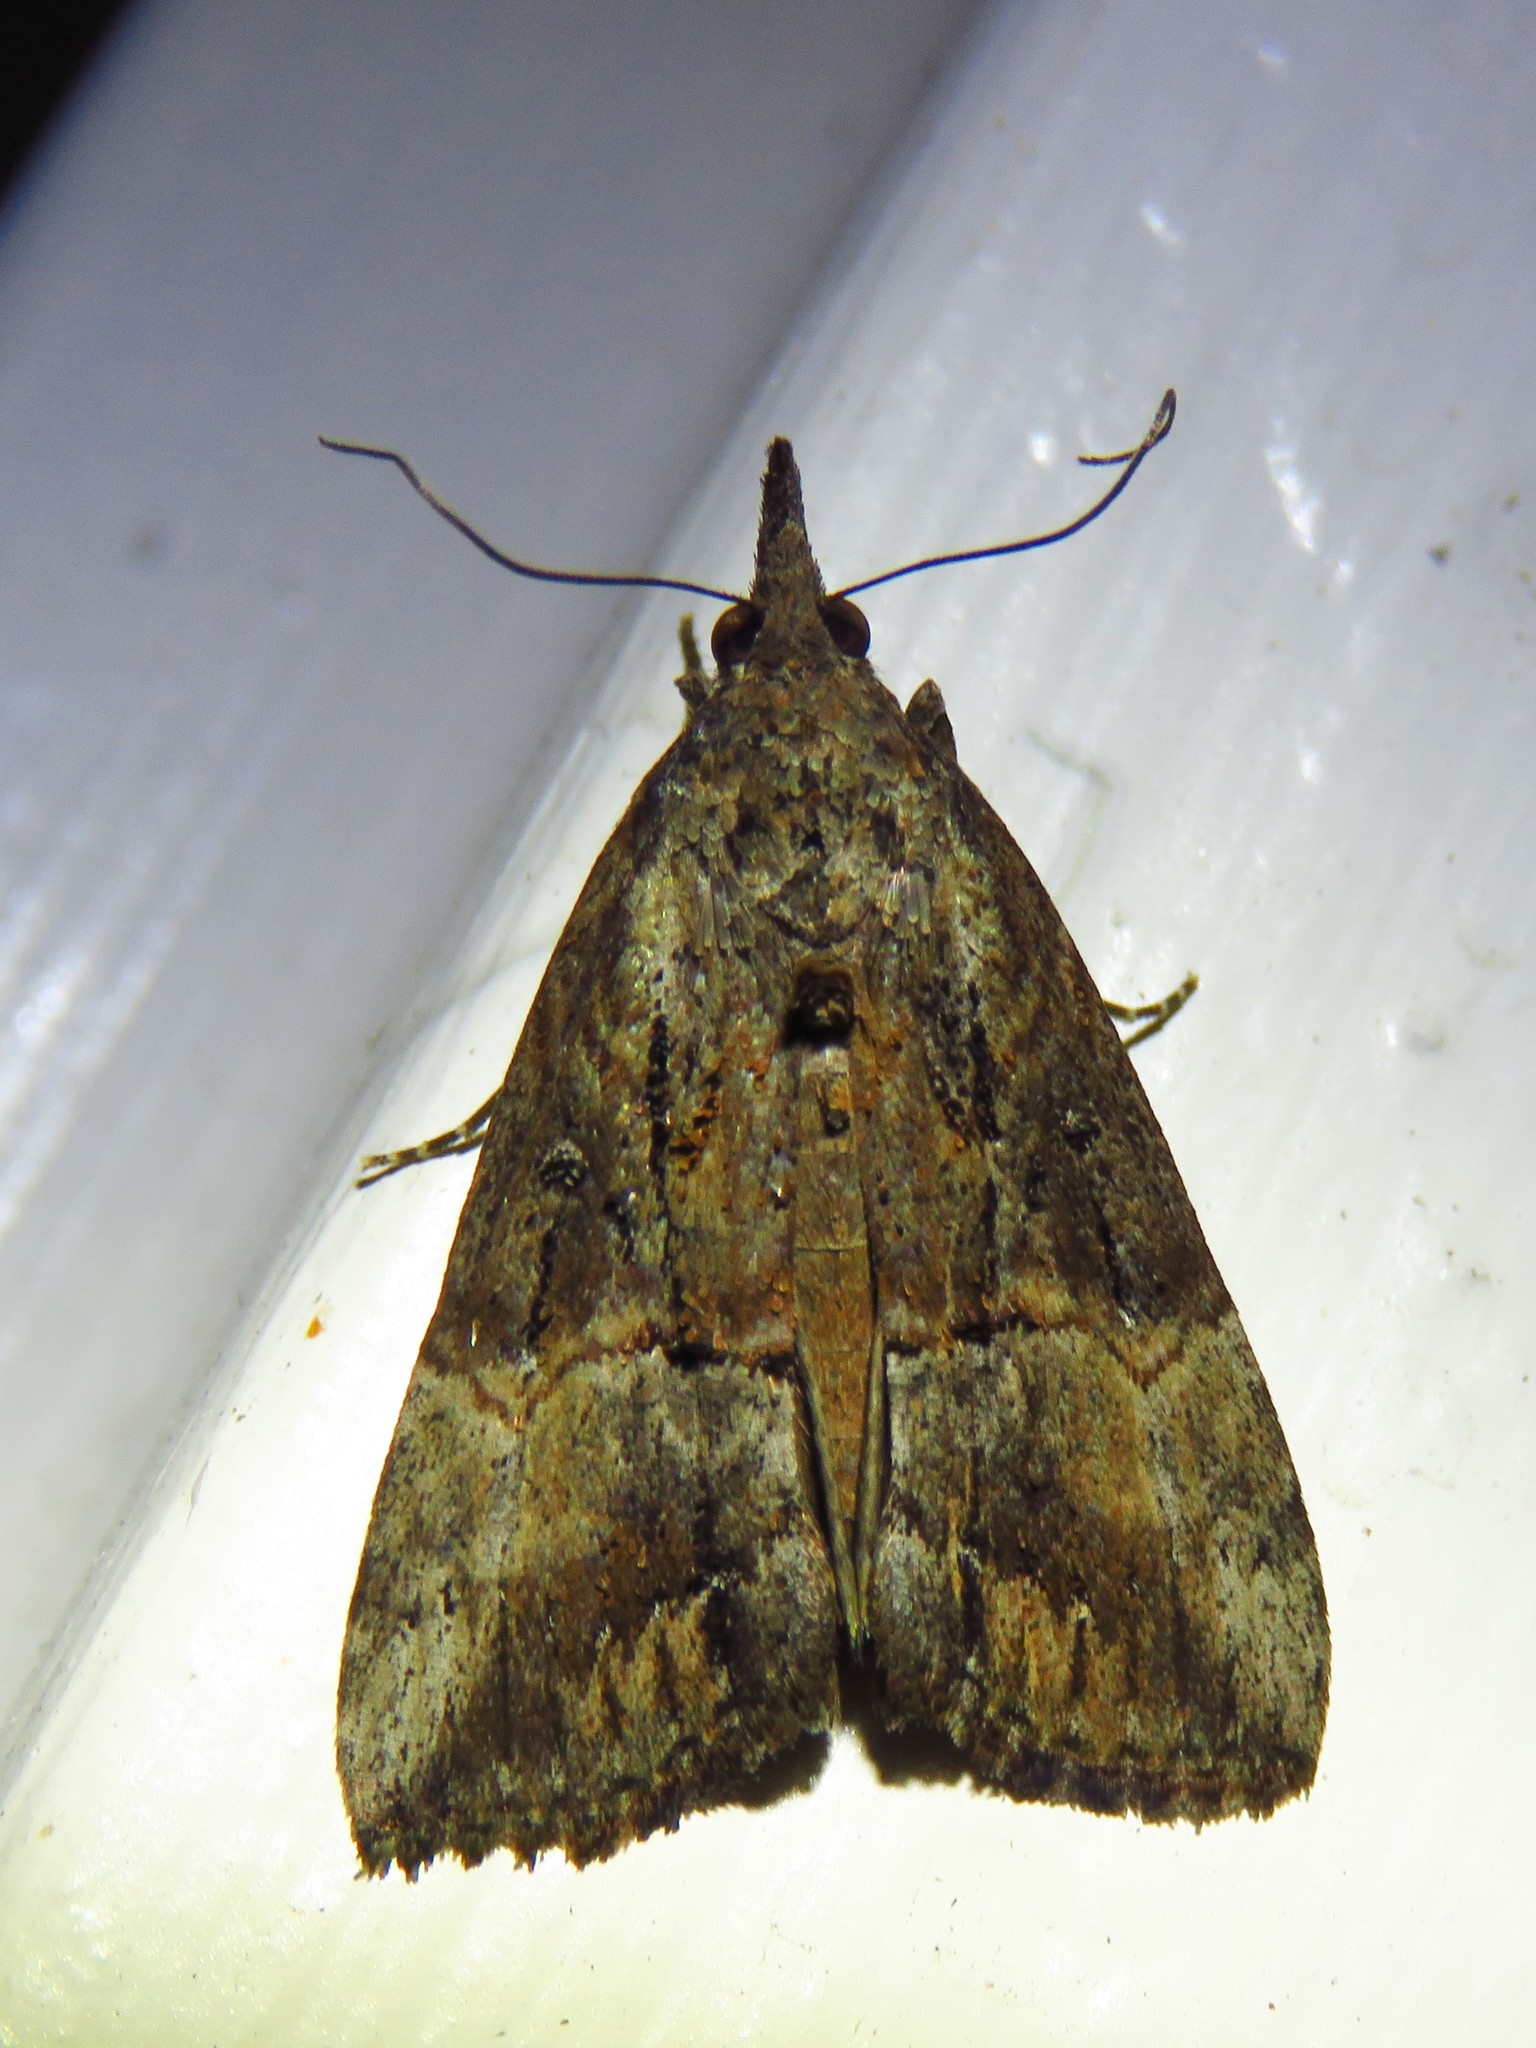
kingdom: Animalia
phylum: Arthropoda
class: Insecta
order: Lepidoptera
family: Erebidae
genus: Hypena
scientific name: Hypena scabra
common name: Green cloverworm
